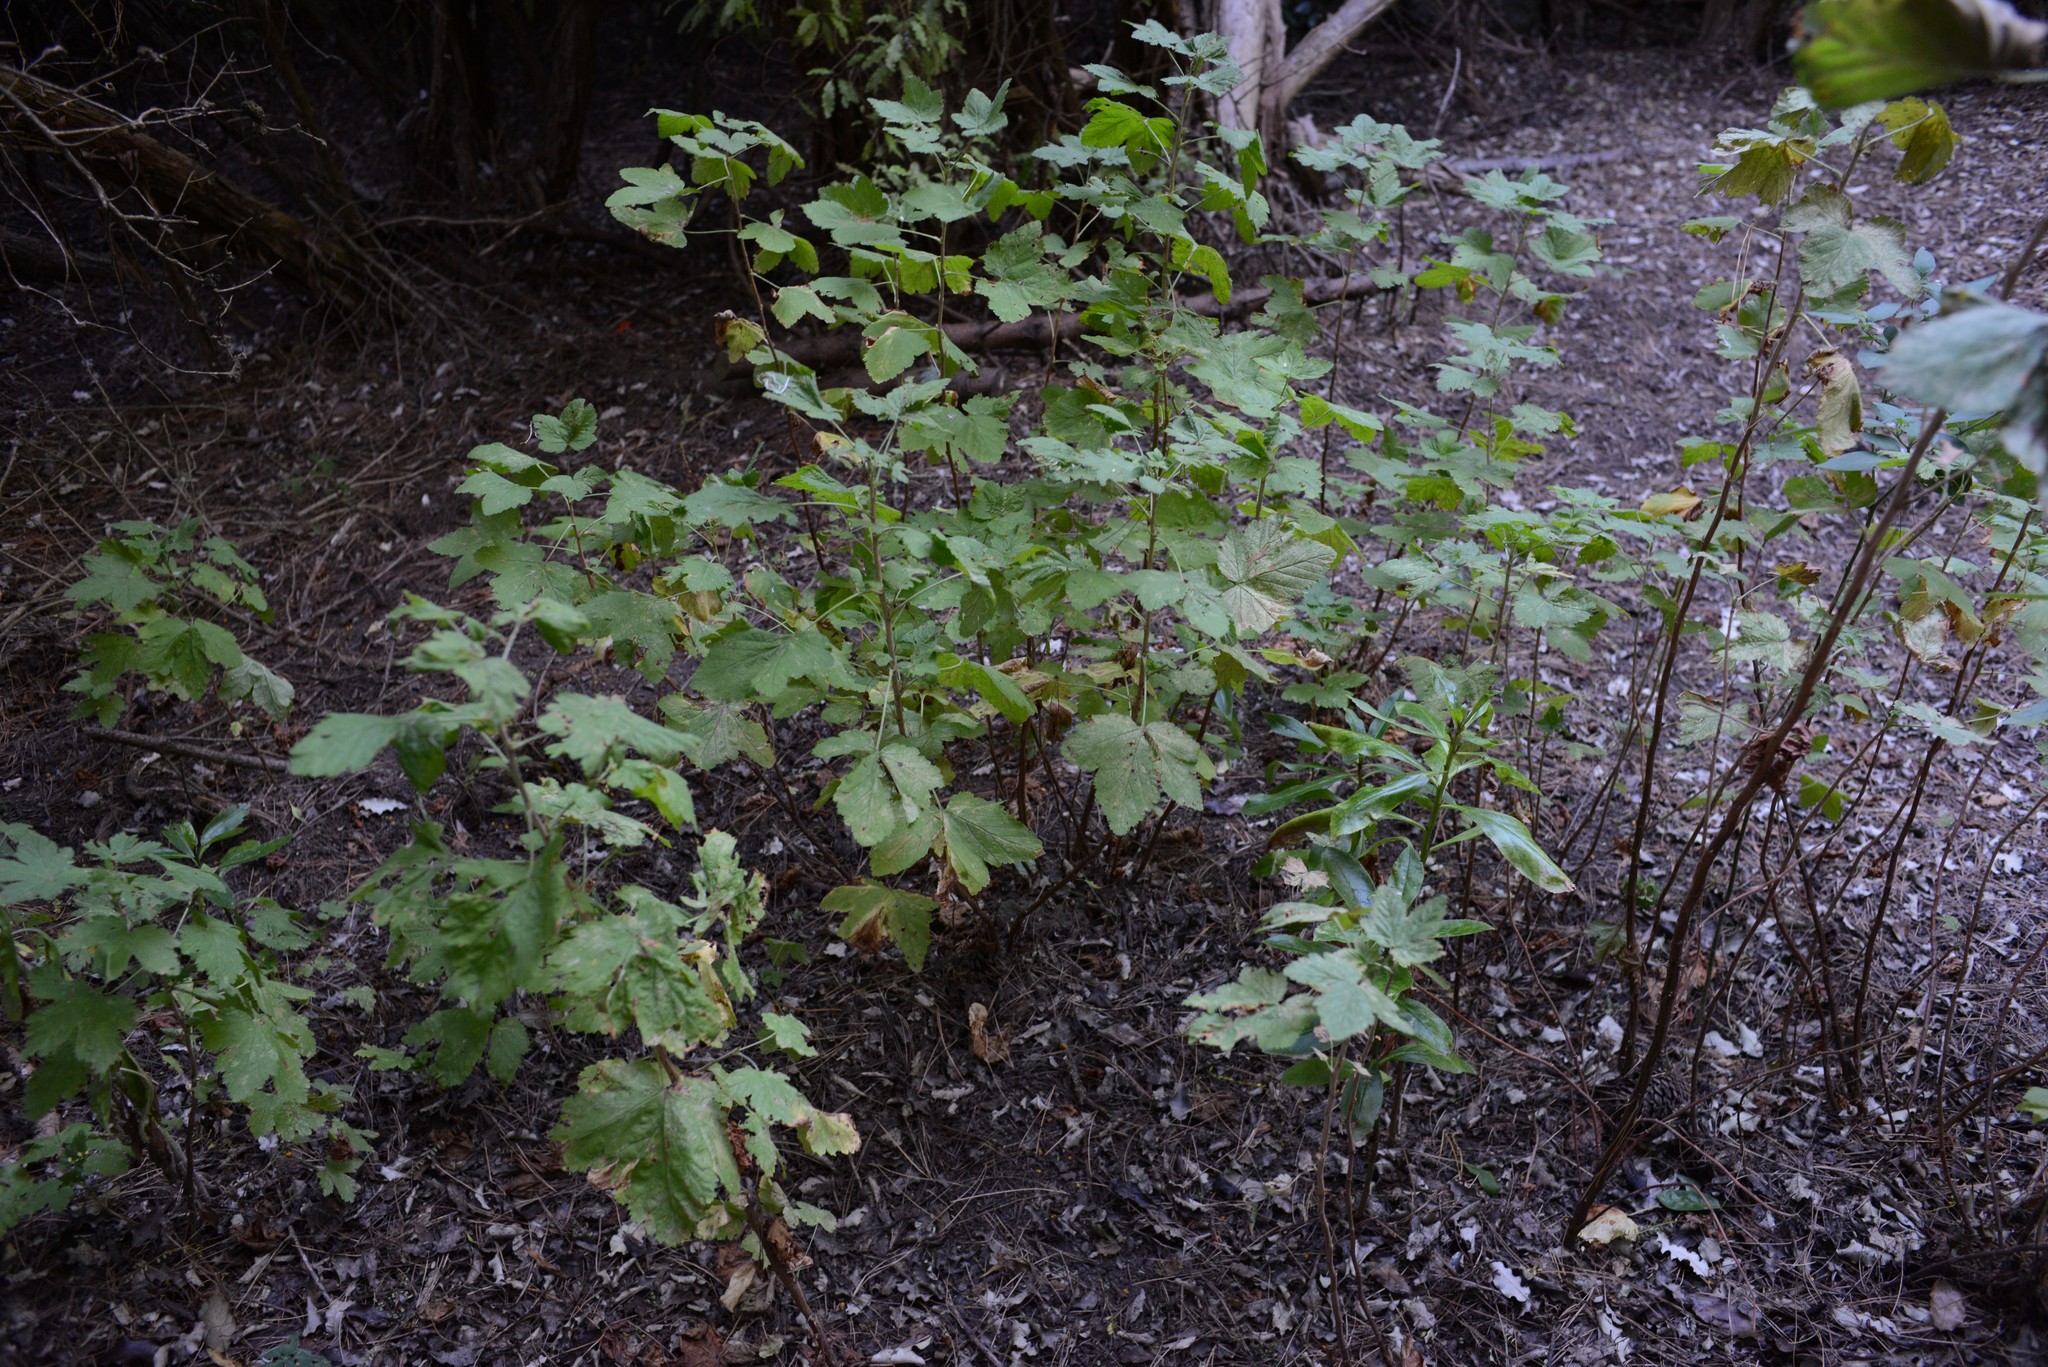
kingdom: Plantae
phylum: Tracheophyta
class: Magnoliopsida
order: Saxifragales
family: Grossulariaceae
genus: Ribes
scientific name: Ribes sanguineum
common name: Flowering currant
